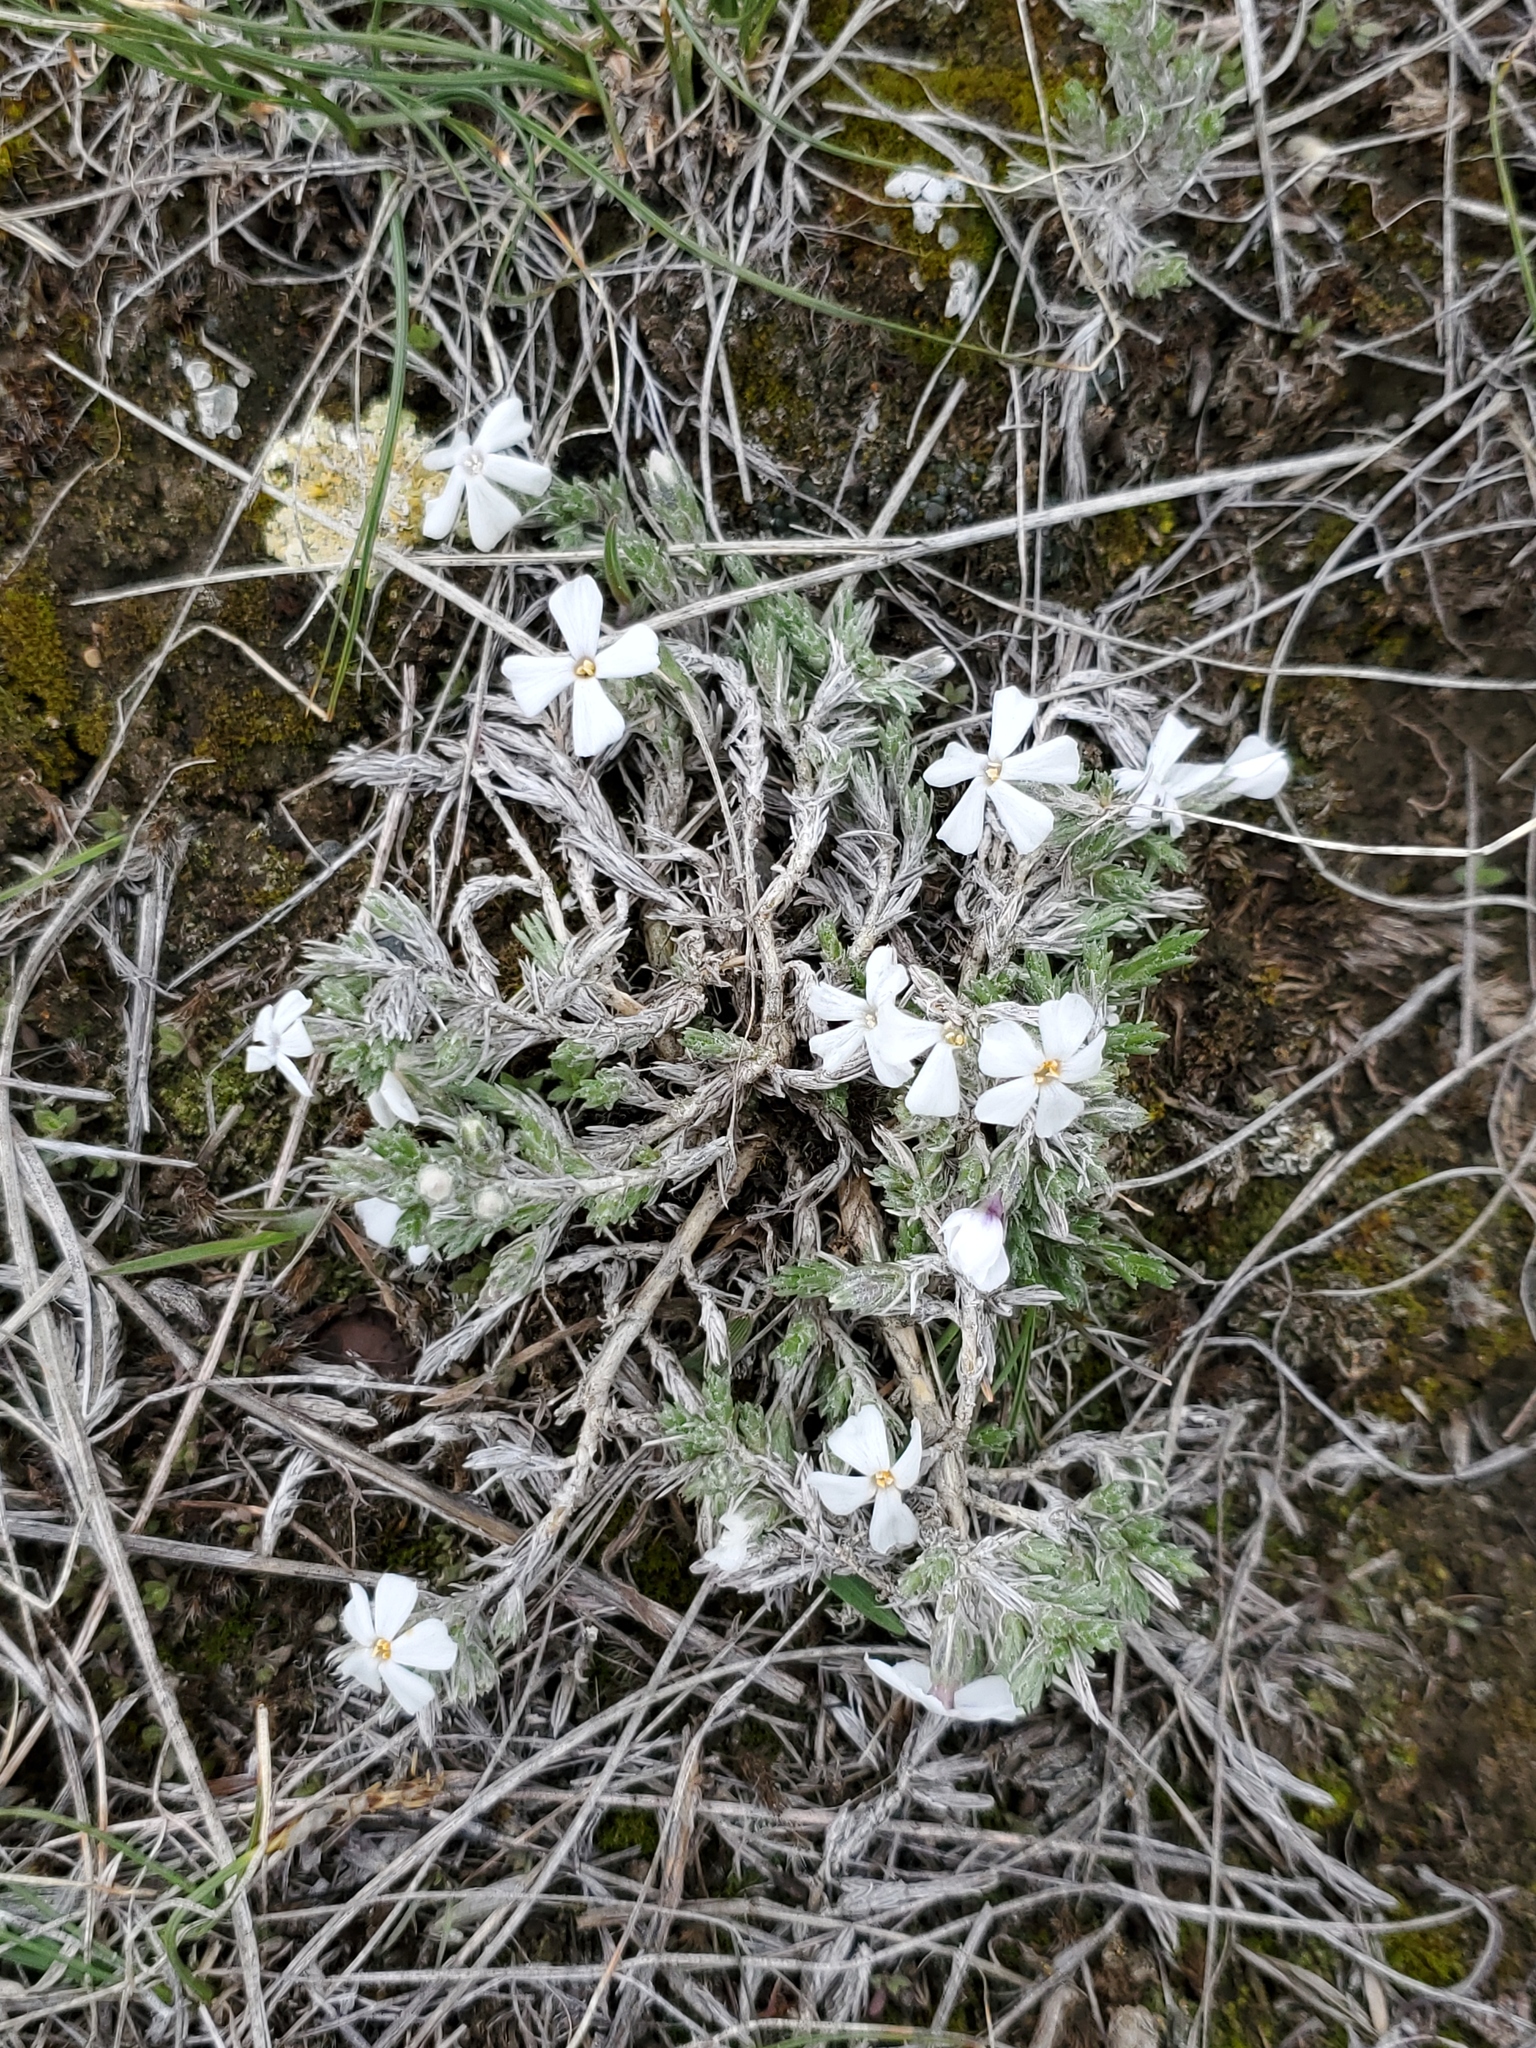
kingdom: Plantae
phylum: Tracheophyta
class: Magnoliopsida
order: Ericales
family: Polemoniaceae
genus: Phlox
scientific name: Phlox hoodii
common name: Moss phlox
